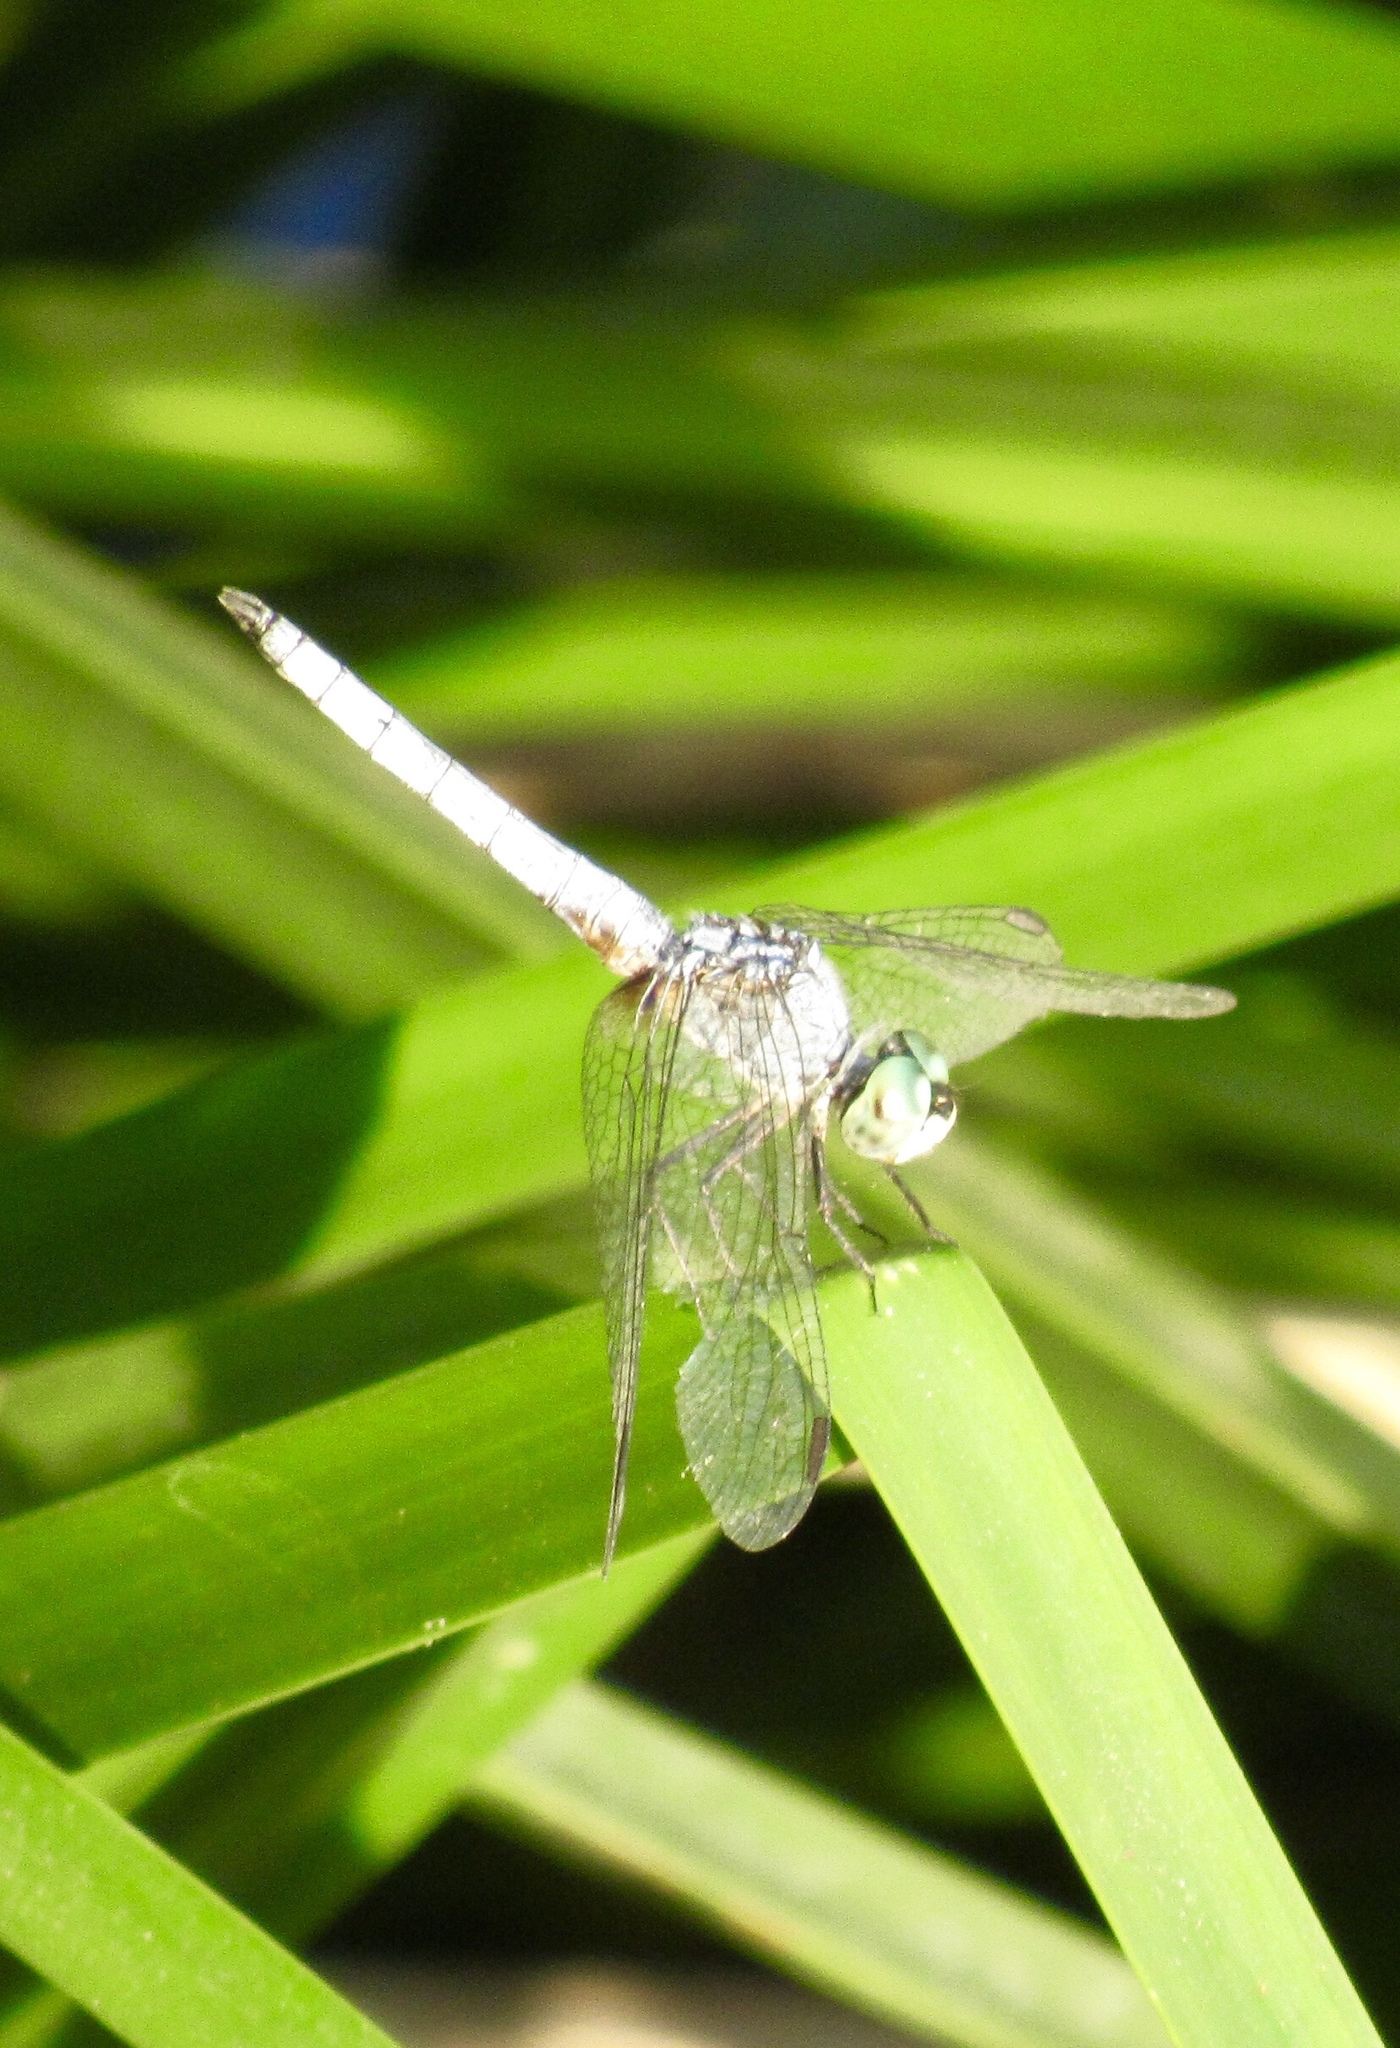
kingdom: Animalia
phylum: Arthropoda
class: Insecta
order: Odonata
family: Libellulidae
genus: Pachydiplax
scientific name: Pachydiplax longipennis
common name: Blue dasher
